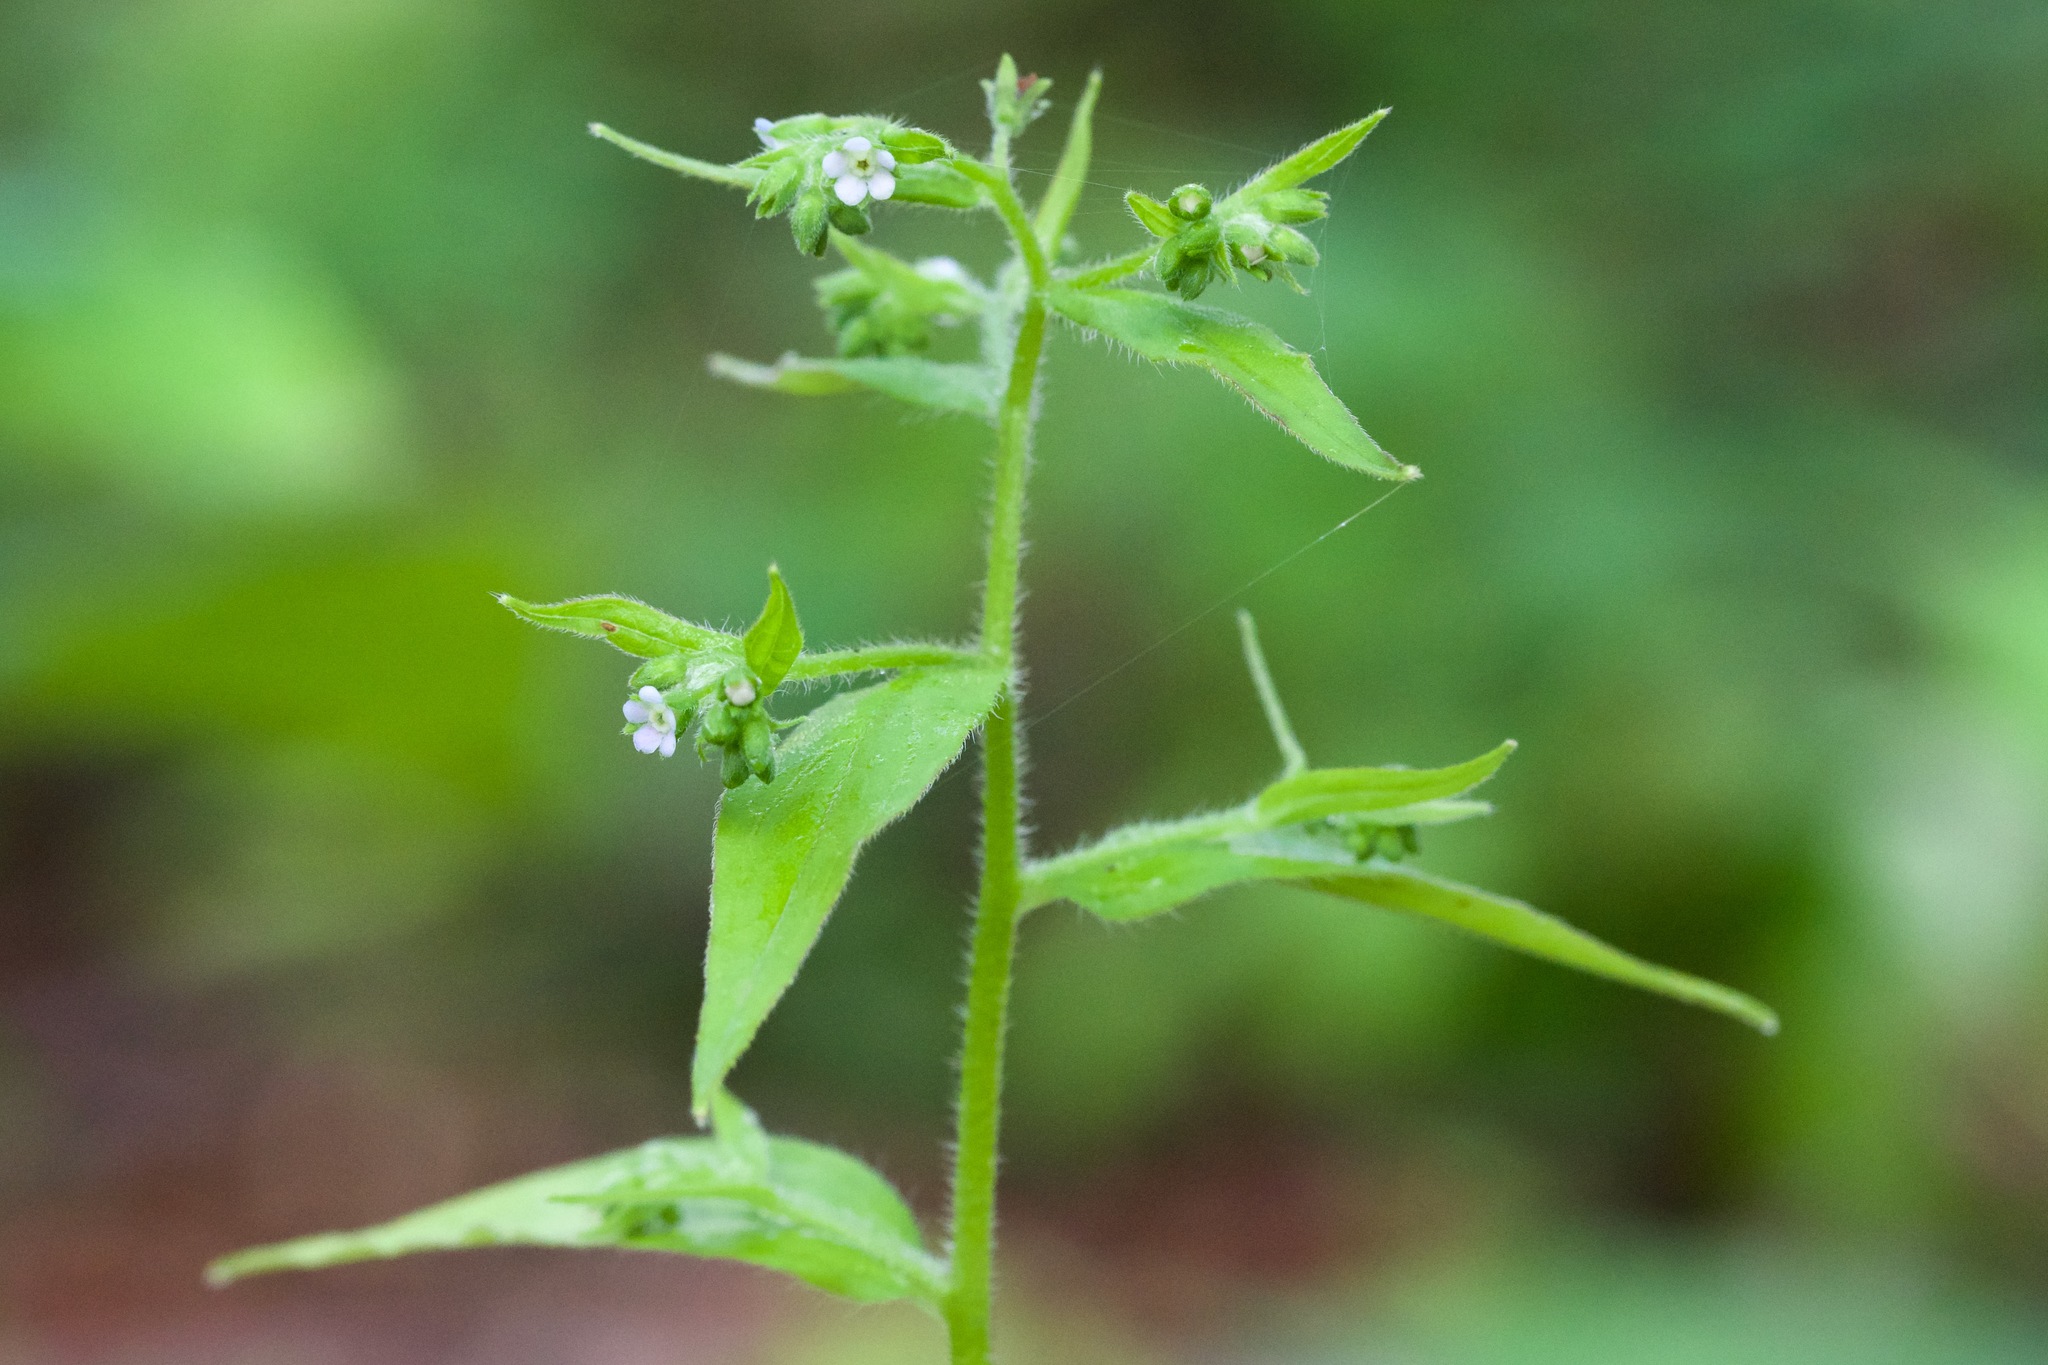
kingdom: Plantae
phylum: Tracheophyta
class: Magnoliopsida
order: Boraginales
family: Boraginaceae
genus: Hackelia
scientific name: Hackelia virginiana
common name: Beggar's-lice
